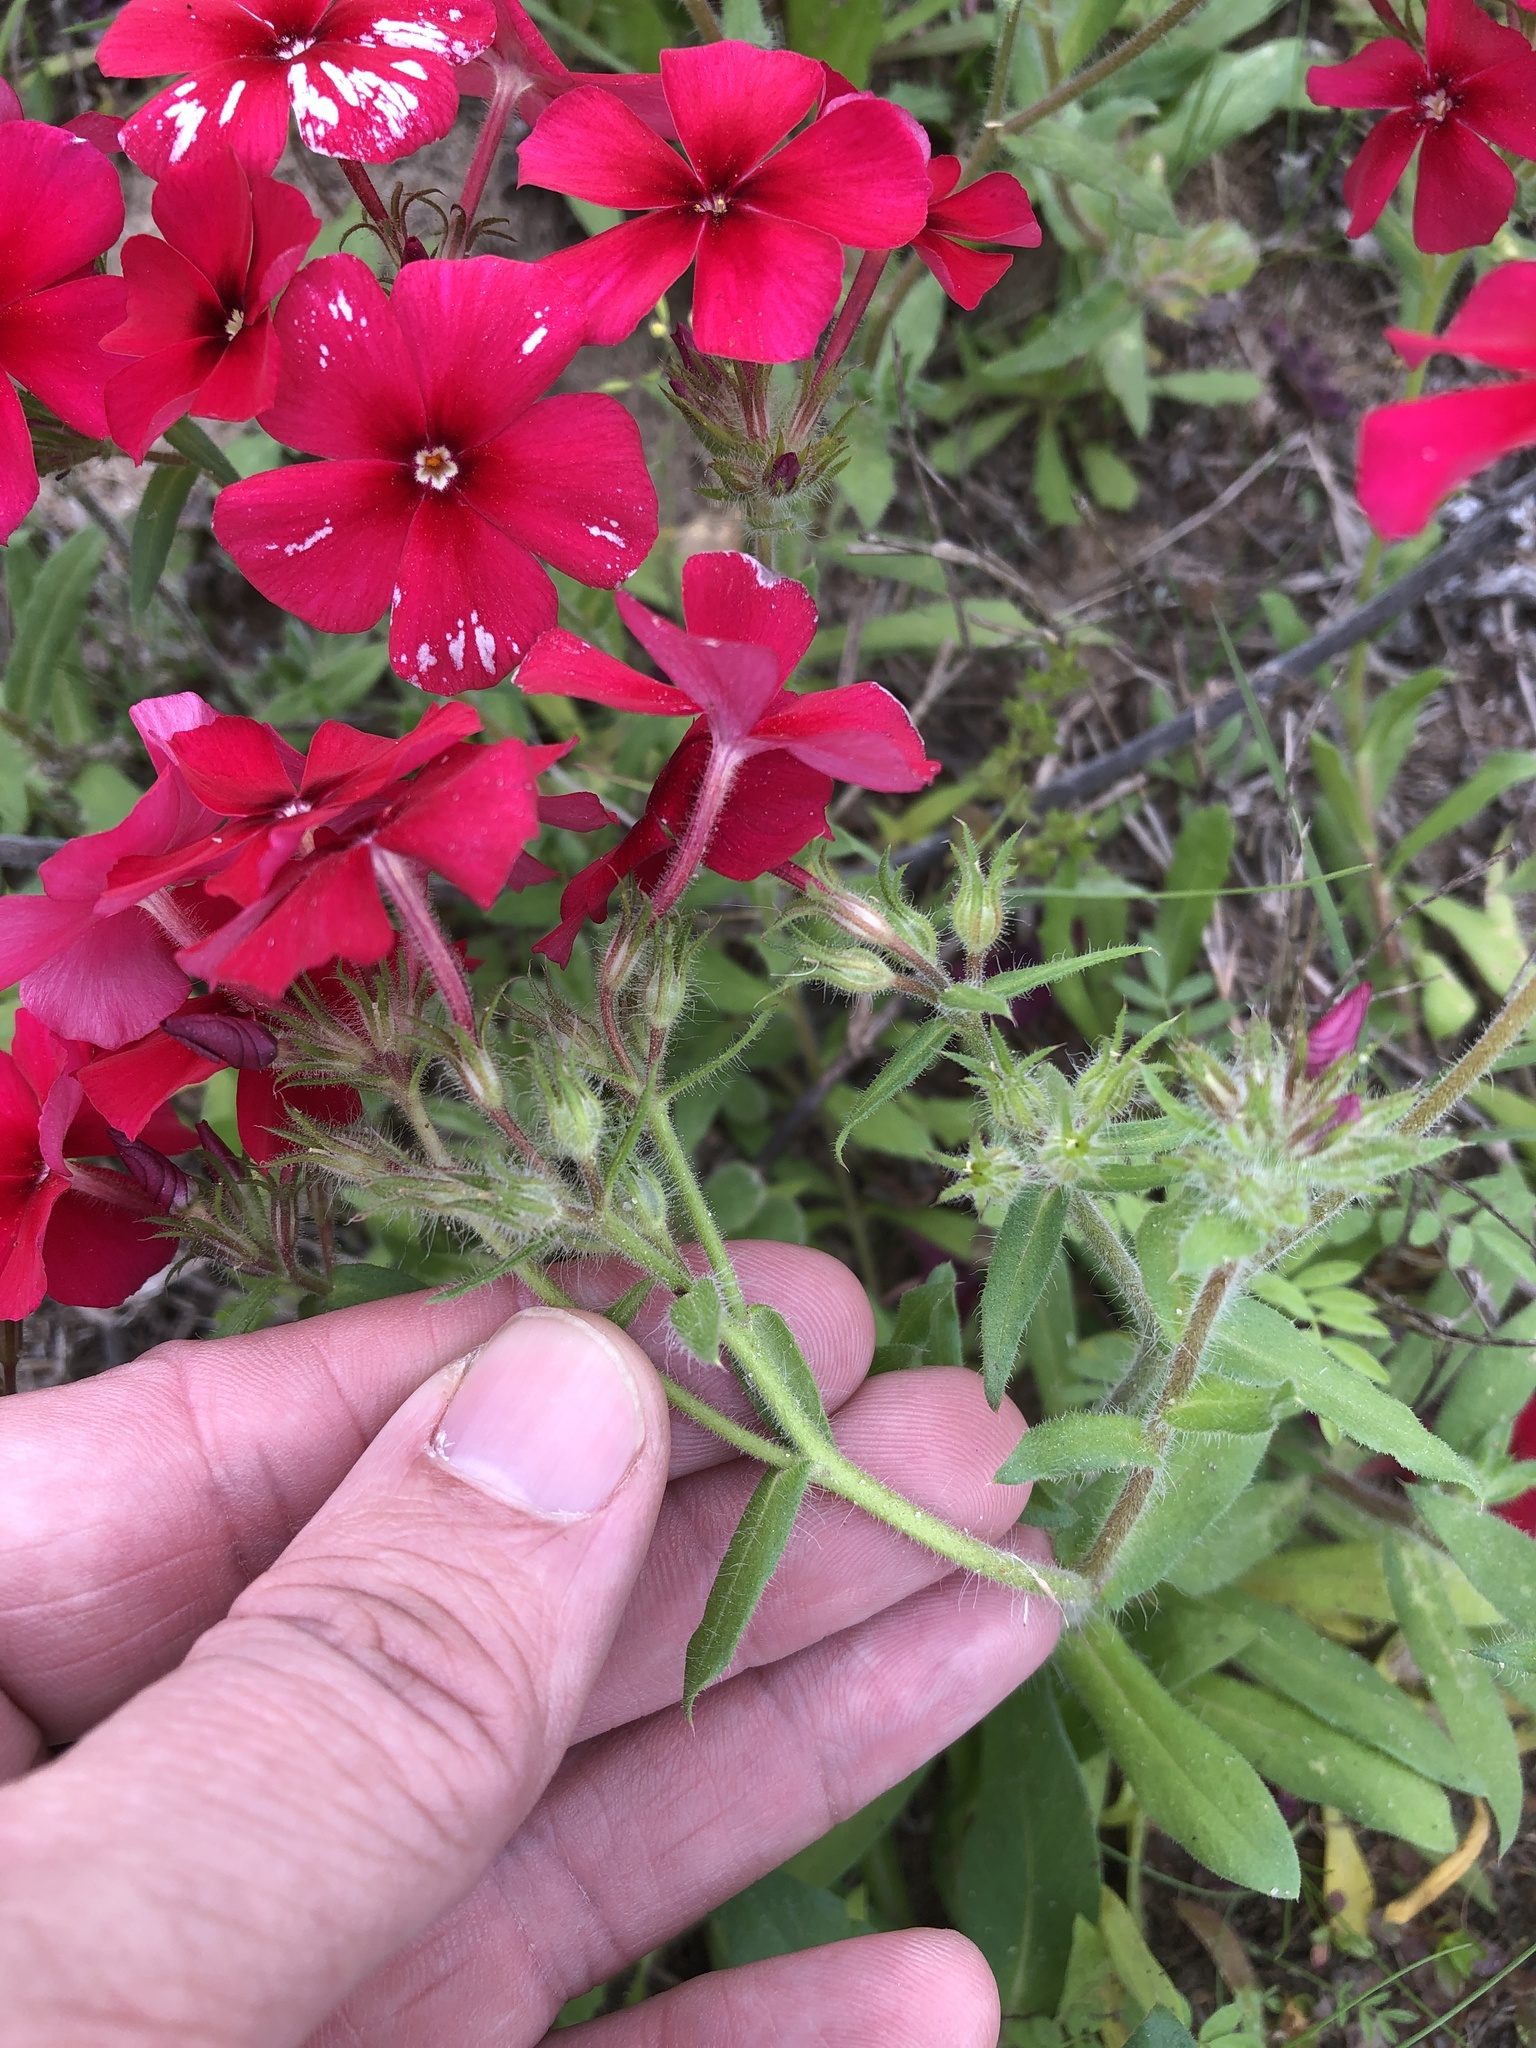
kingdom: Plantae
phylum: Tracheophyta
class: Magnoliopsida
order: Ericales
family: Polemoniaceae
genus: Phlox
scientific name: Phlox drummondii
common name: Drummond's phlox
